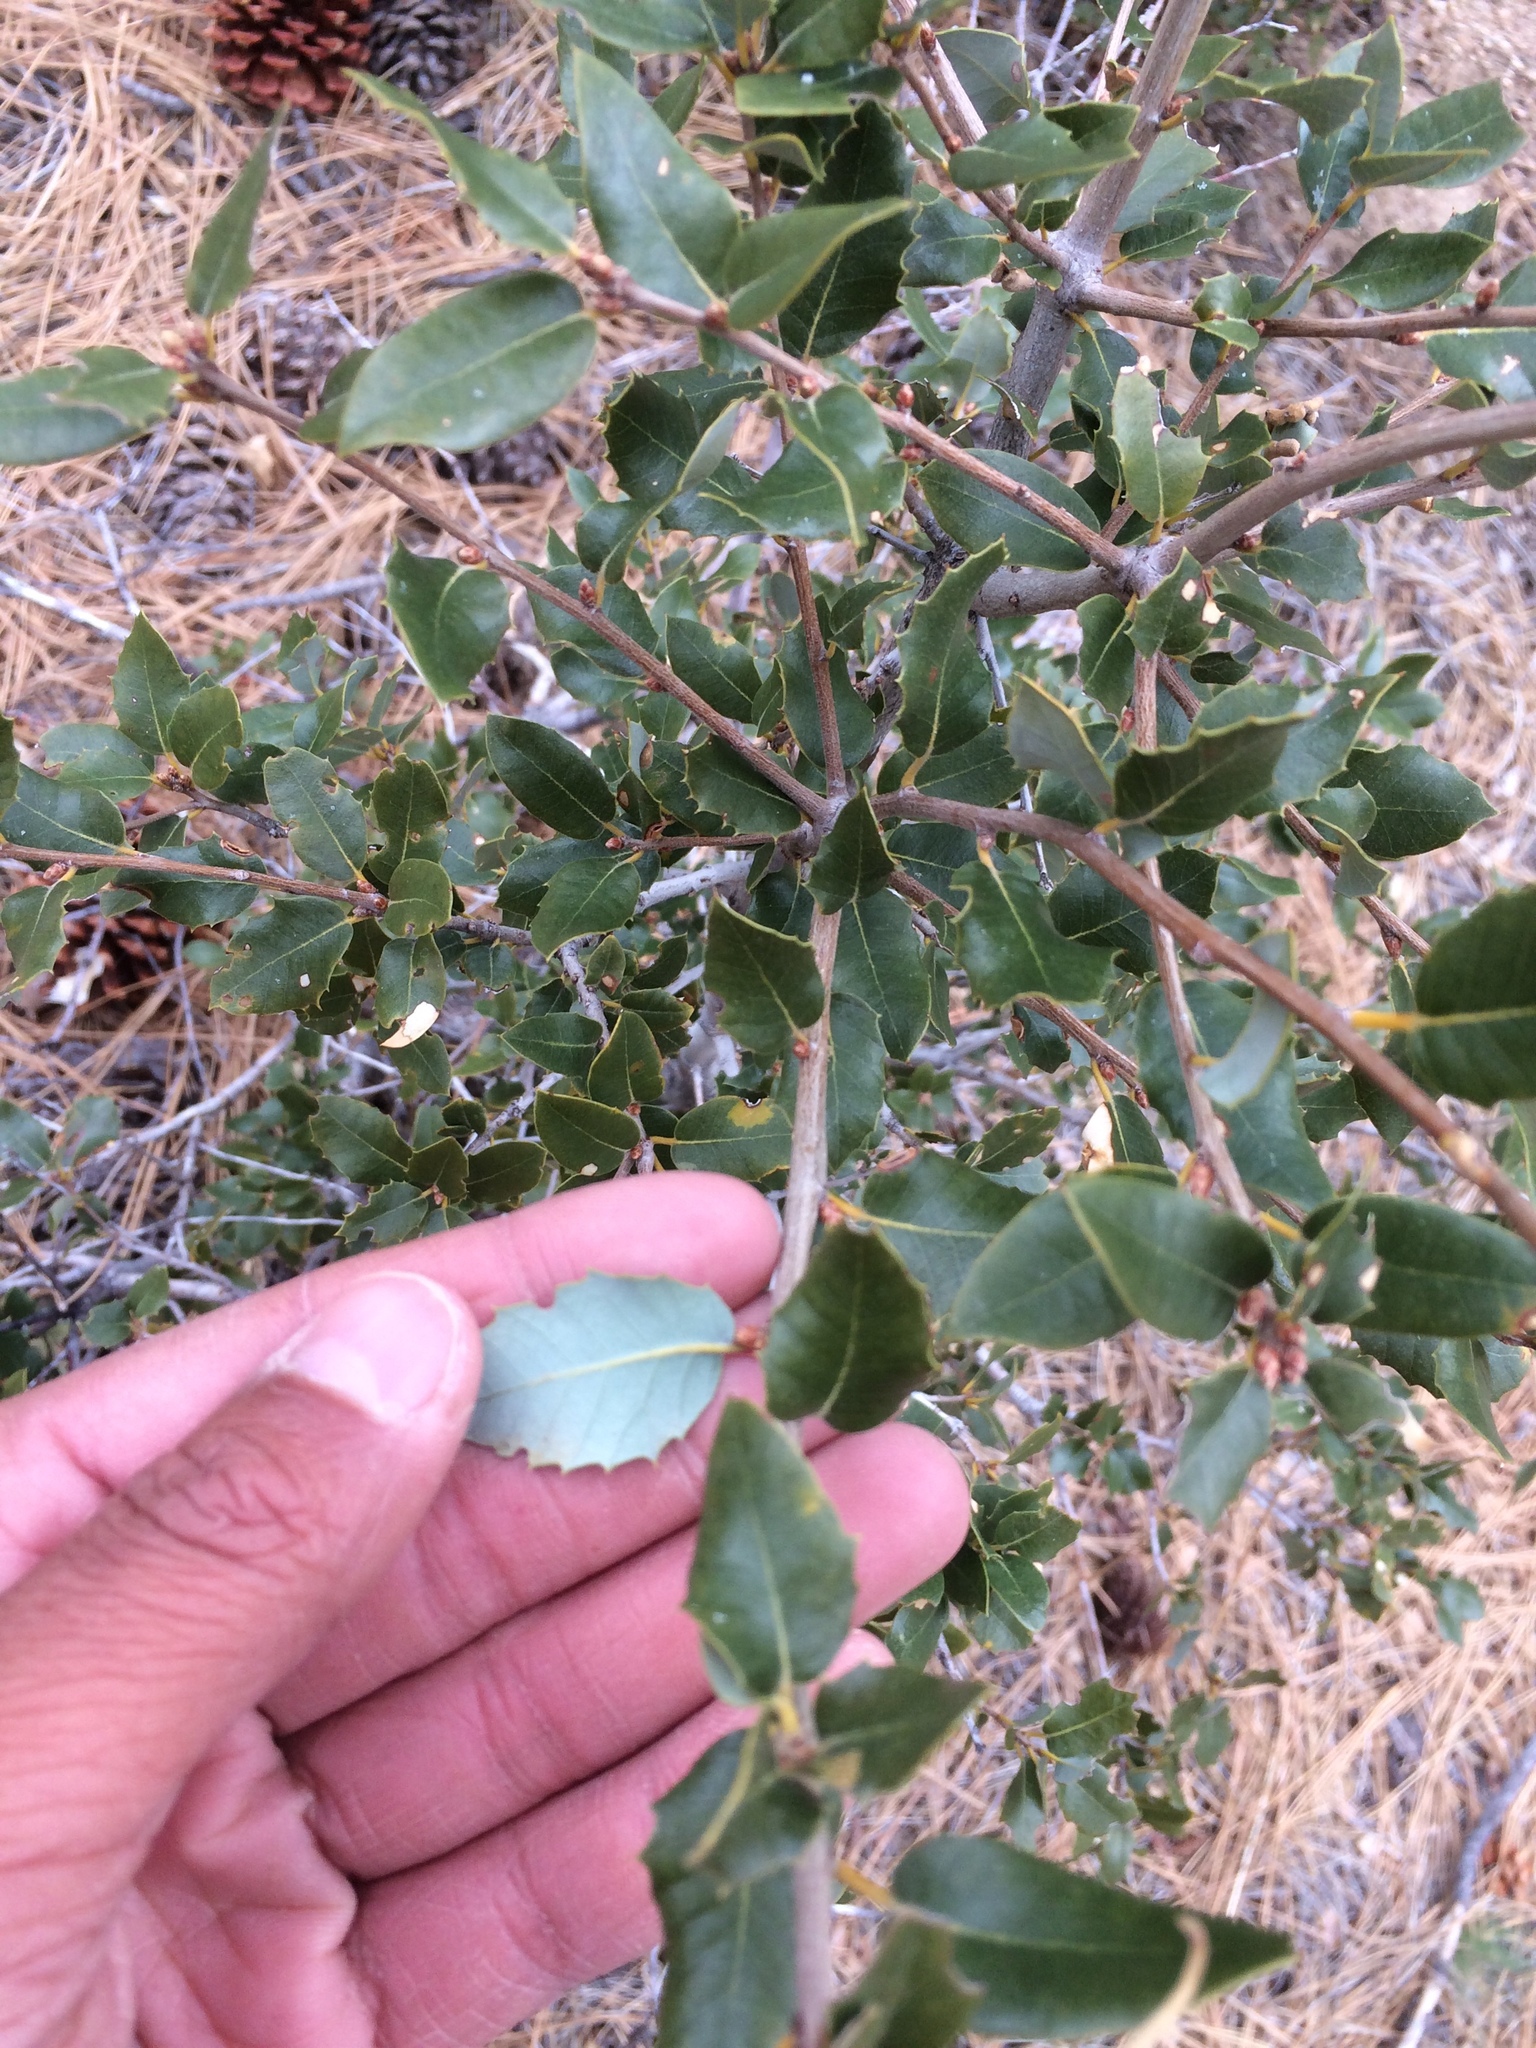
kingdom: Plantae
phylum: Tracheophyta
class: Magnoliopsida
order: Fagales
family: Fagaceae
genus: Quercus
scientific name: Quercus chrysolepis
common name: Canyon live oak
